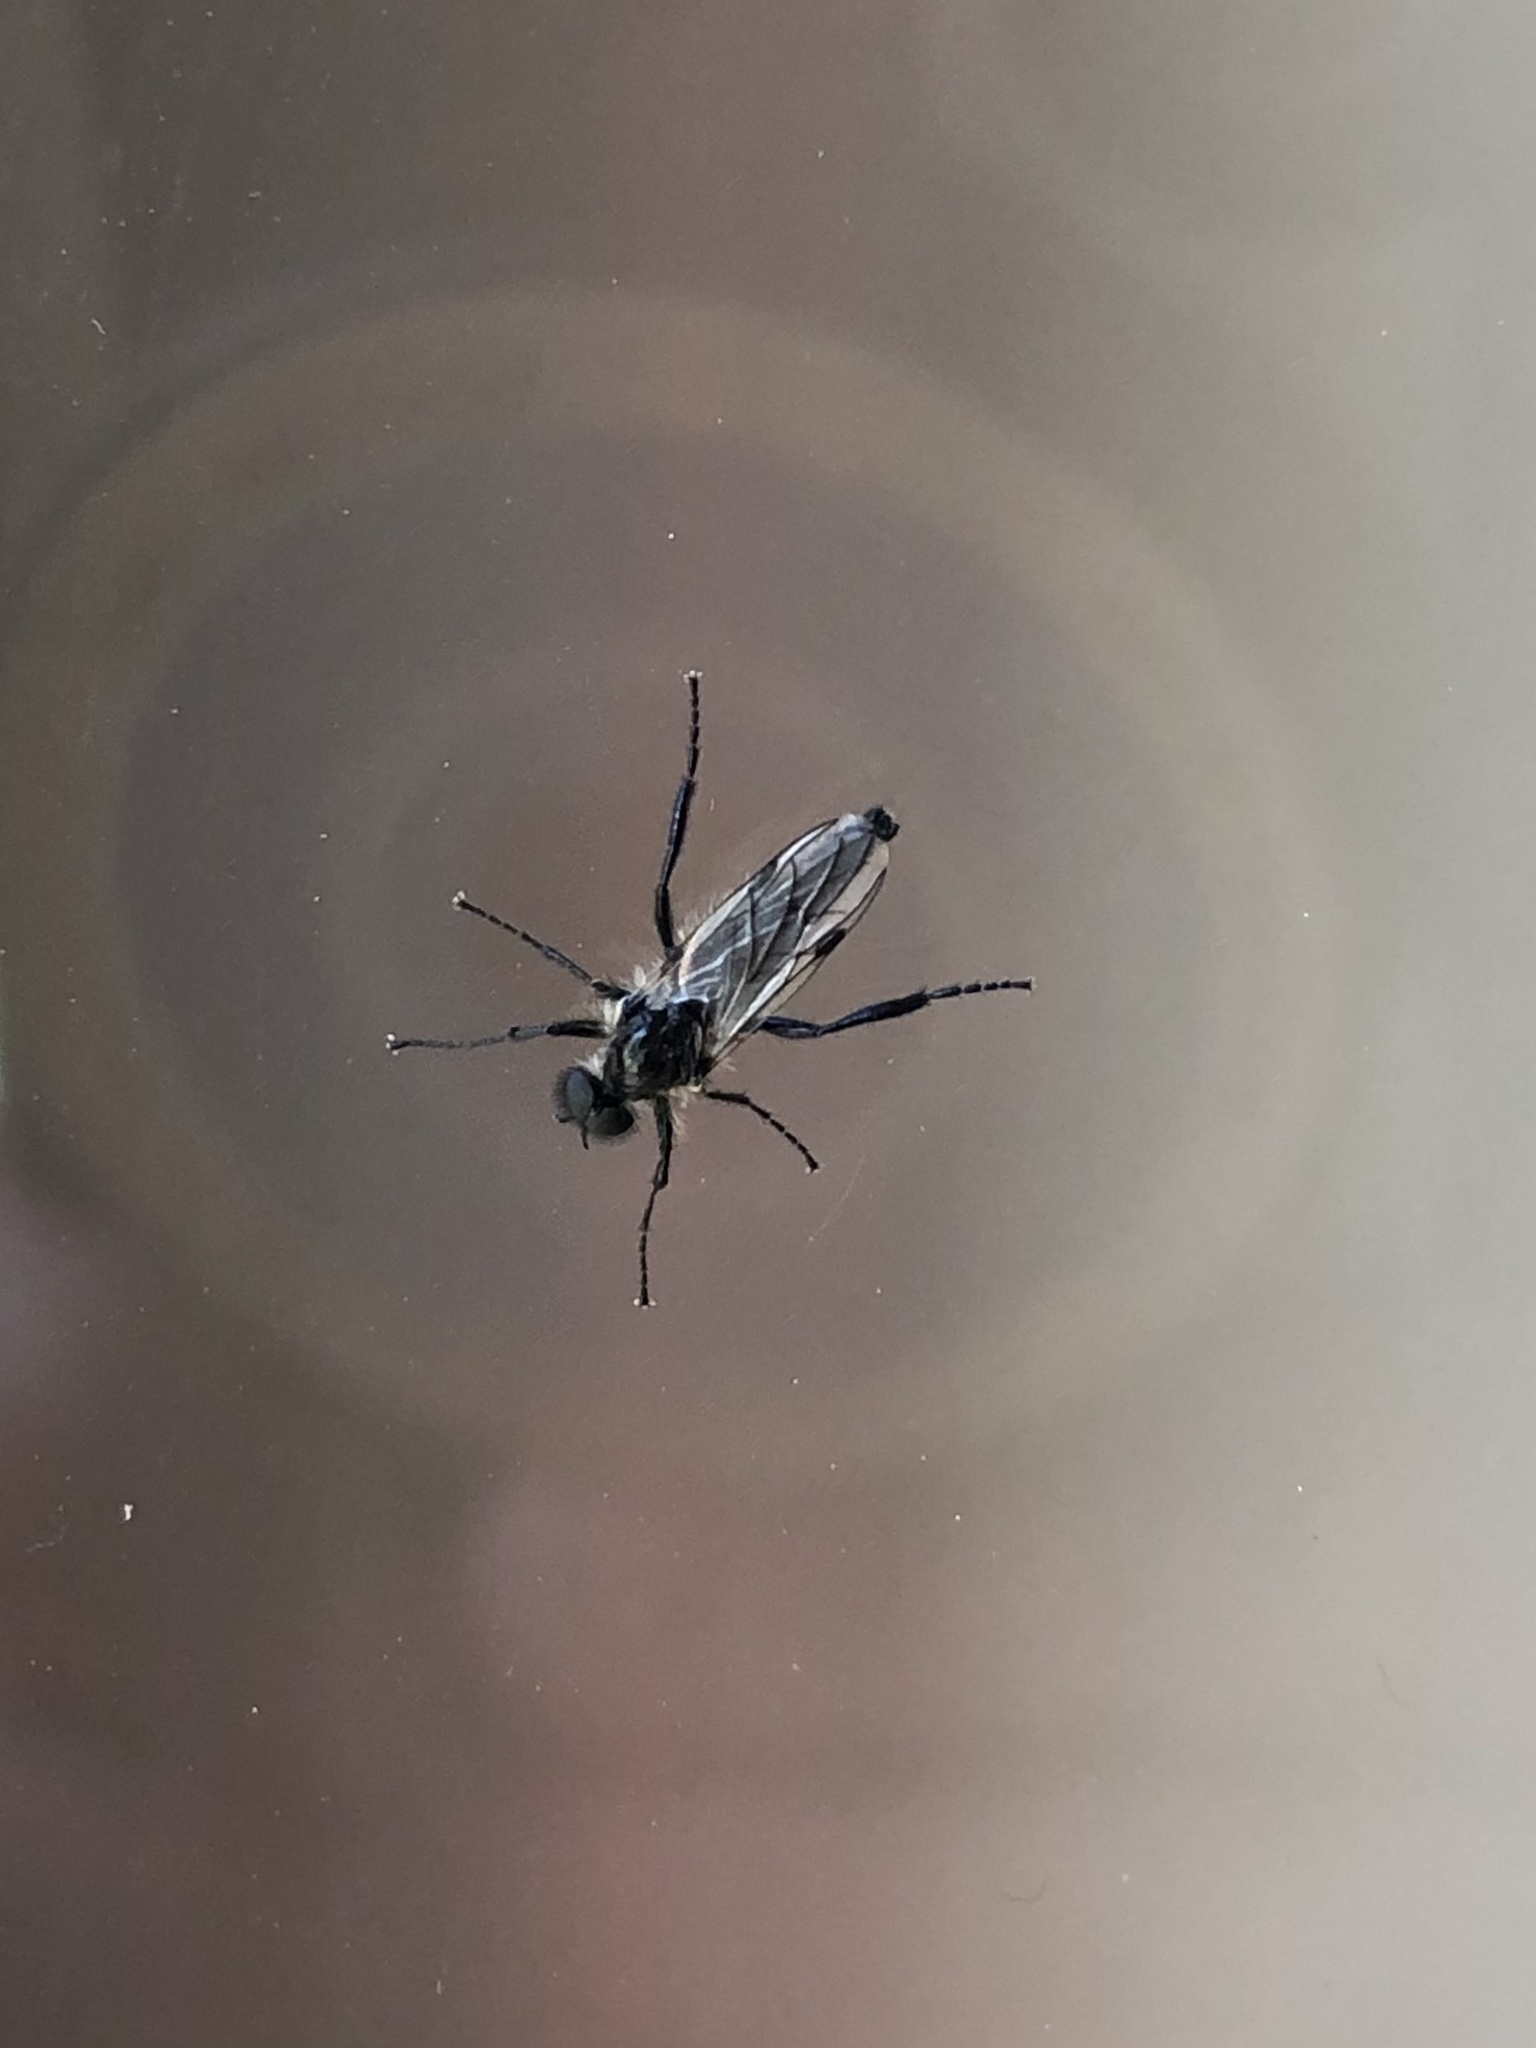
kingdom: Animalia
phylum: Arthropoda
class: Insecta
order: Diptera
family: Bibionidae
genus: Bibio
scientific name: Bibio albipennis
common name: White-winged march fly
